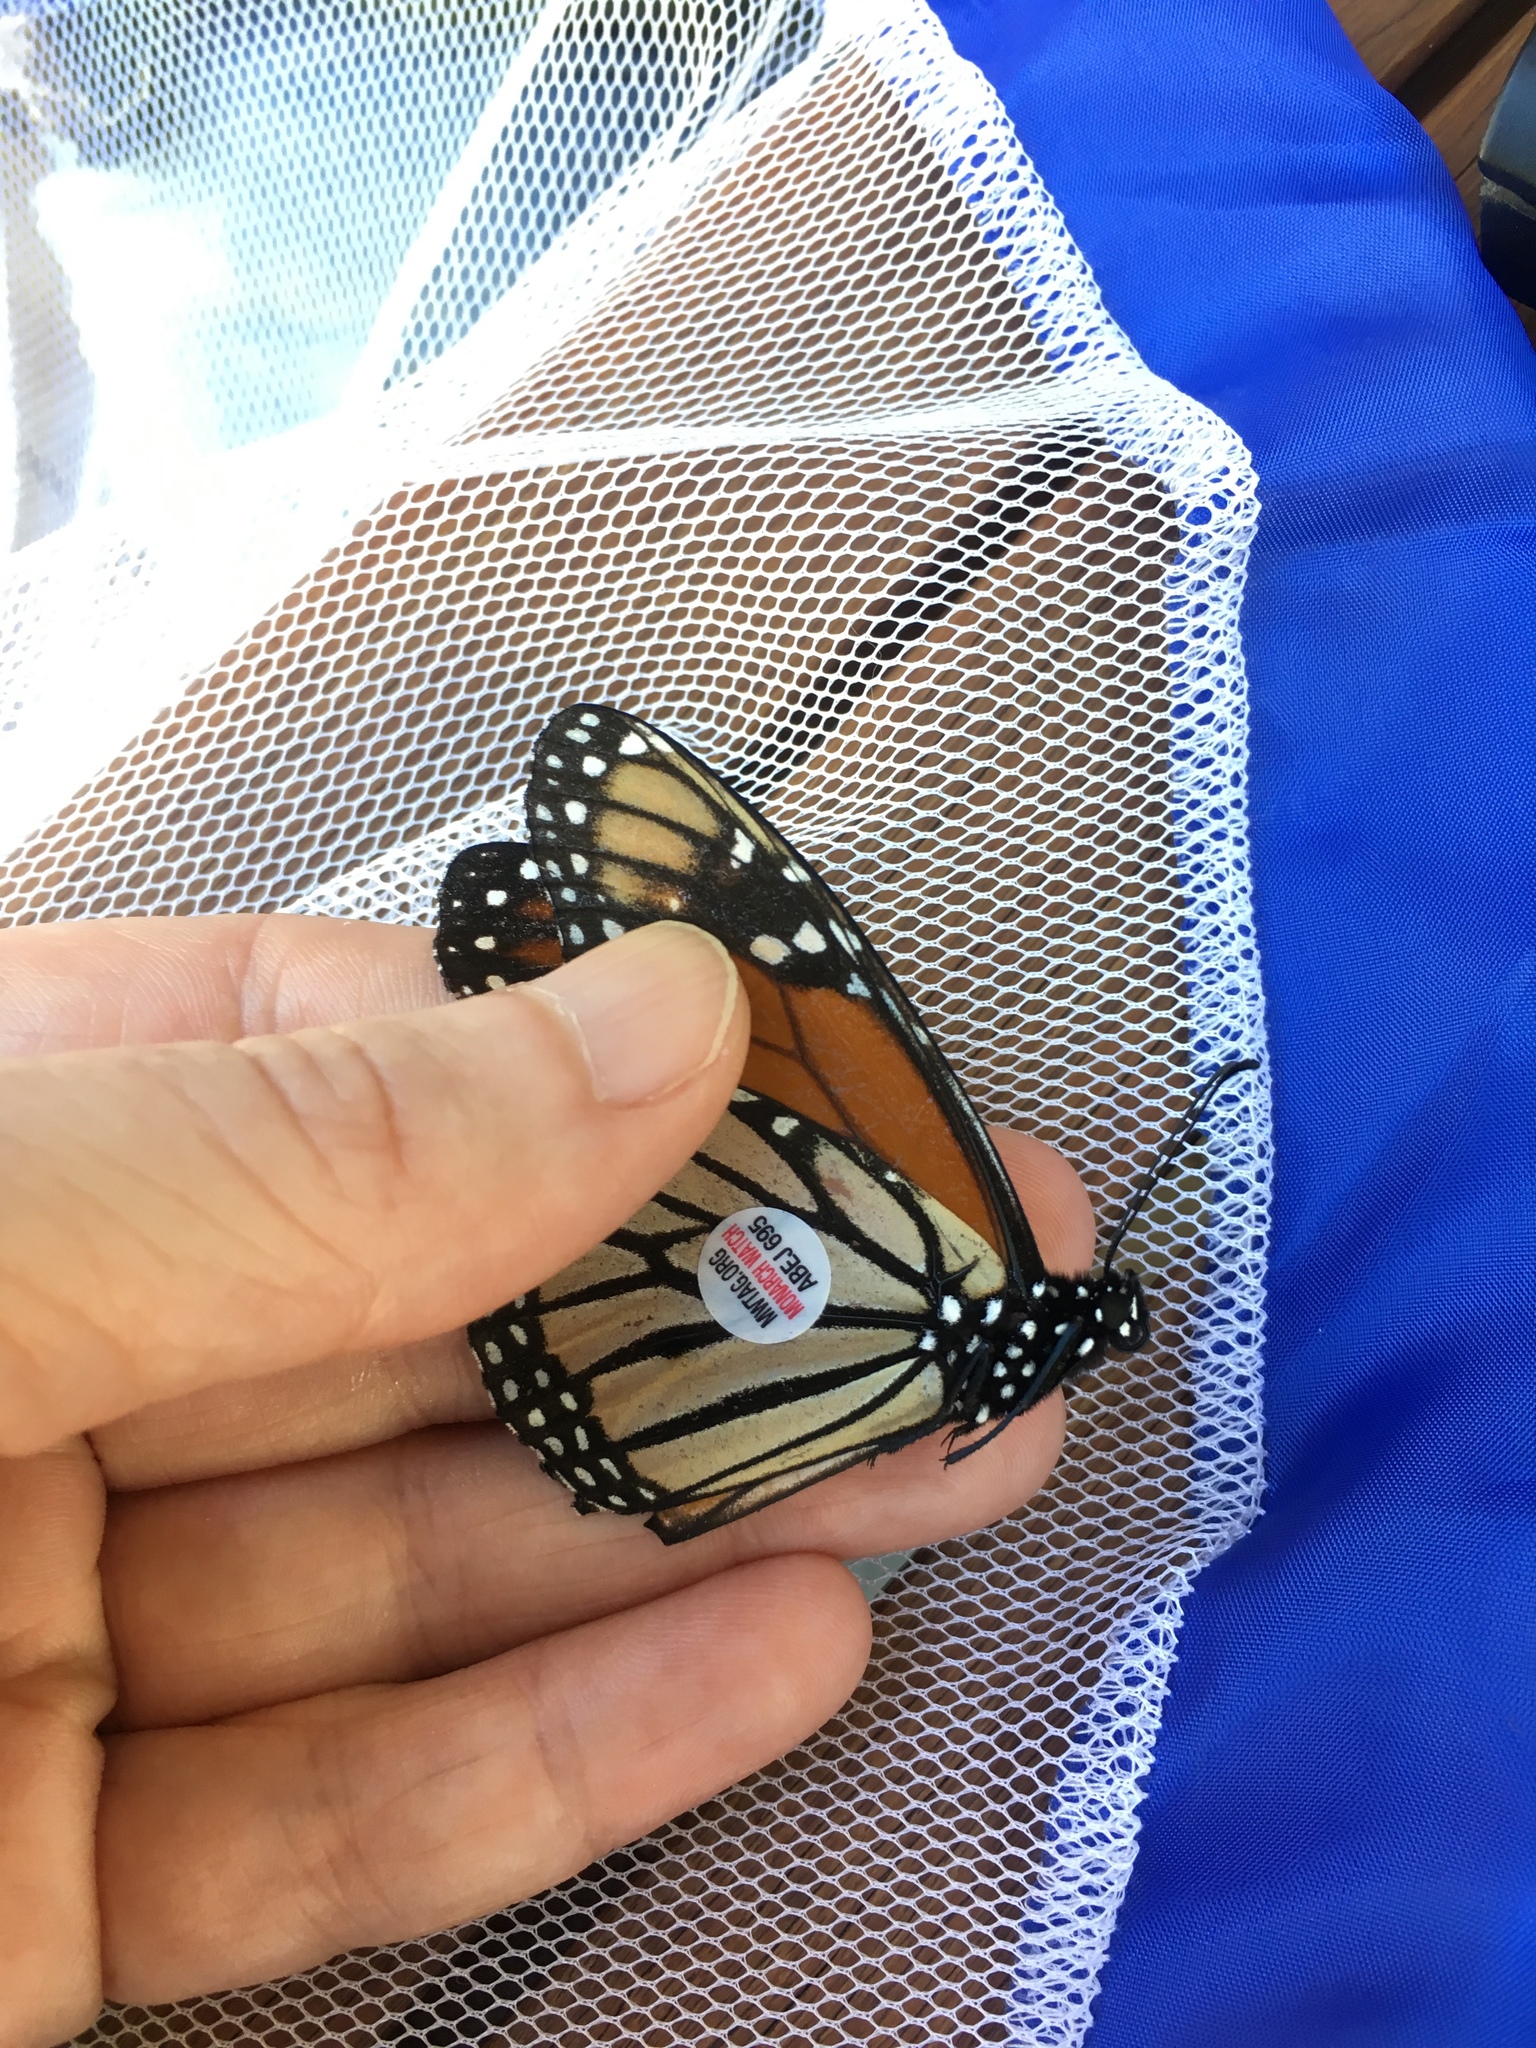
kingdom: Animalia
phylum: Arthropoda
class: Insecta
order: Lepidoptera
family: Nymphalidae
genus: Danaus
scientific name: Danaus plexippus
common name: Monarch
